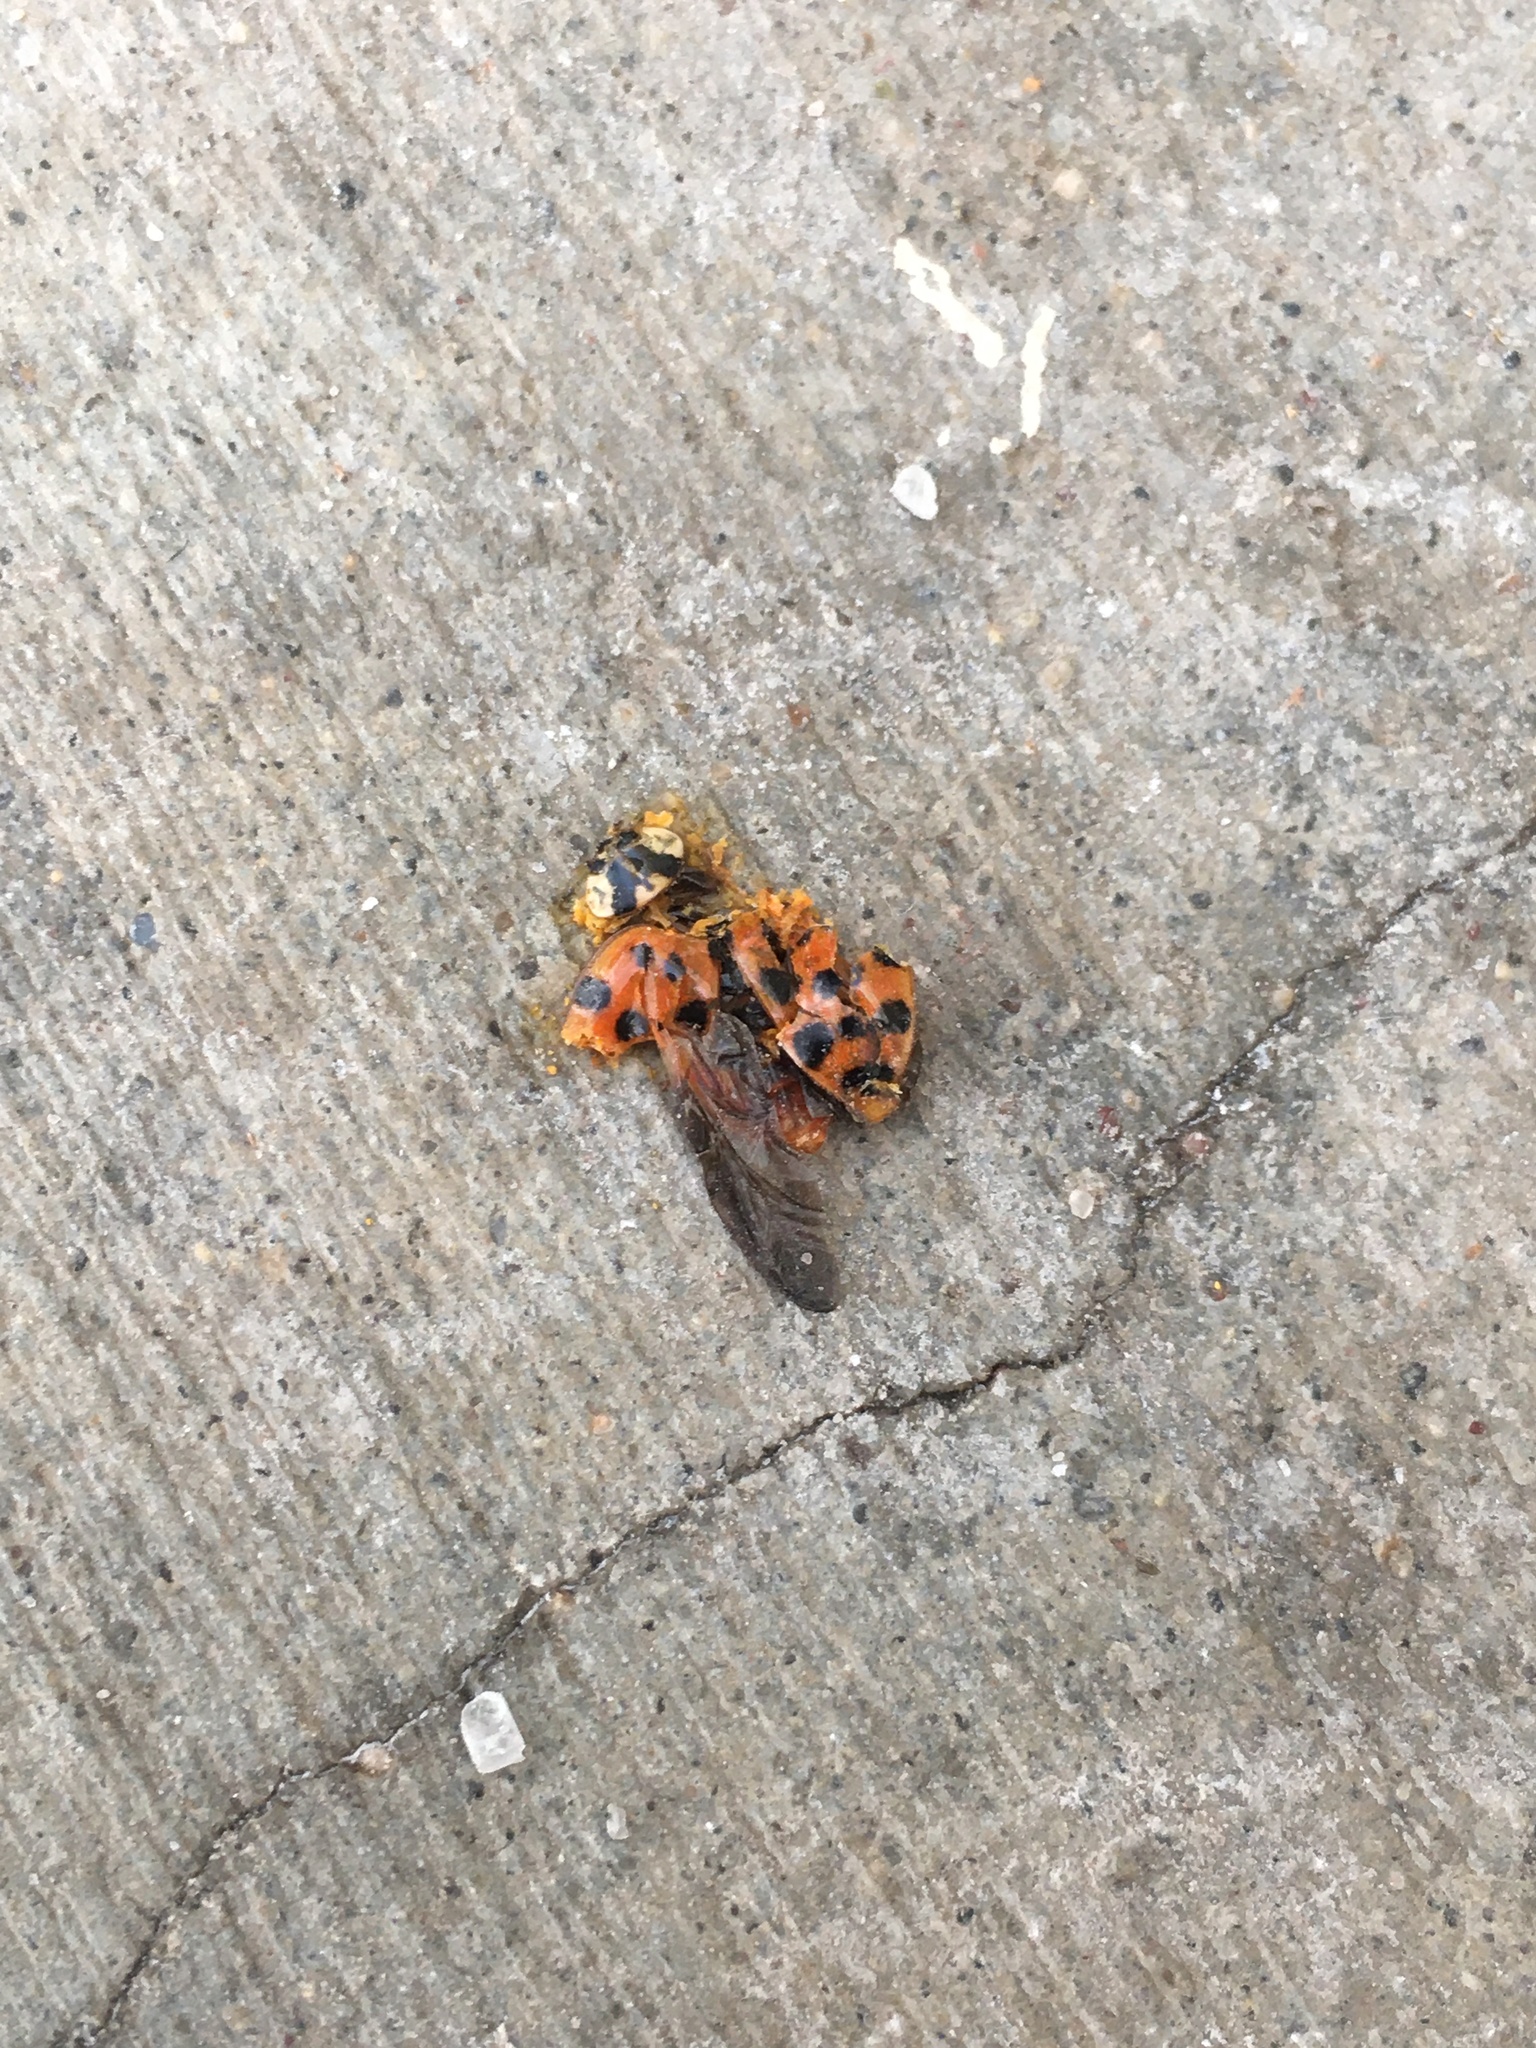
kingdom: Animalia
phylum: Arthropoda
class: Insecta
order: Coleoptera
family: Coccinellidae
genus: Harmonia
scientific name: Harmonia axyridis
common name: Harlequin ladybird
